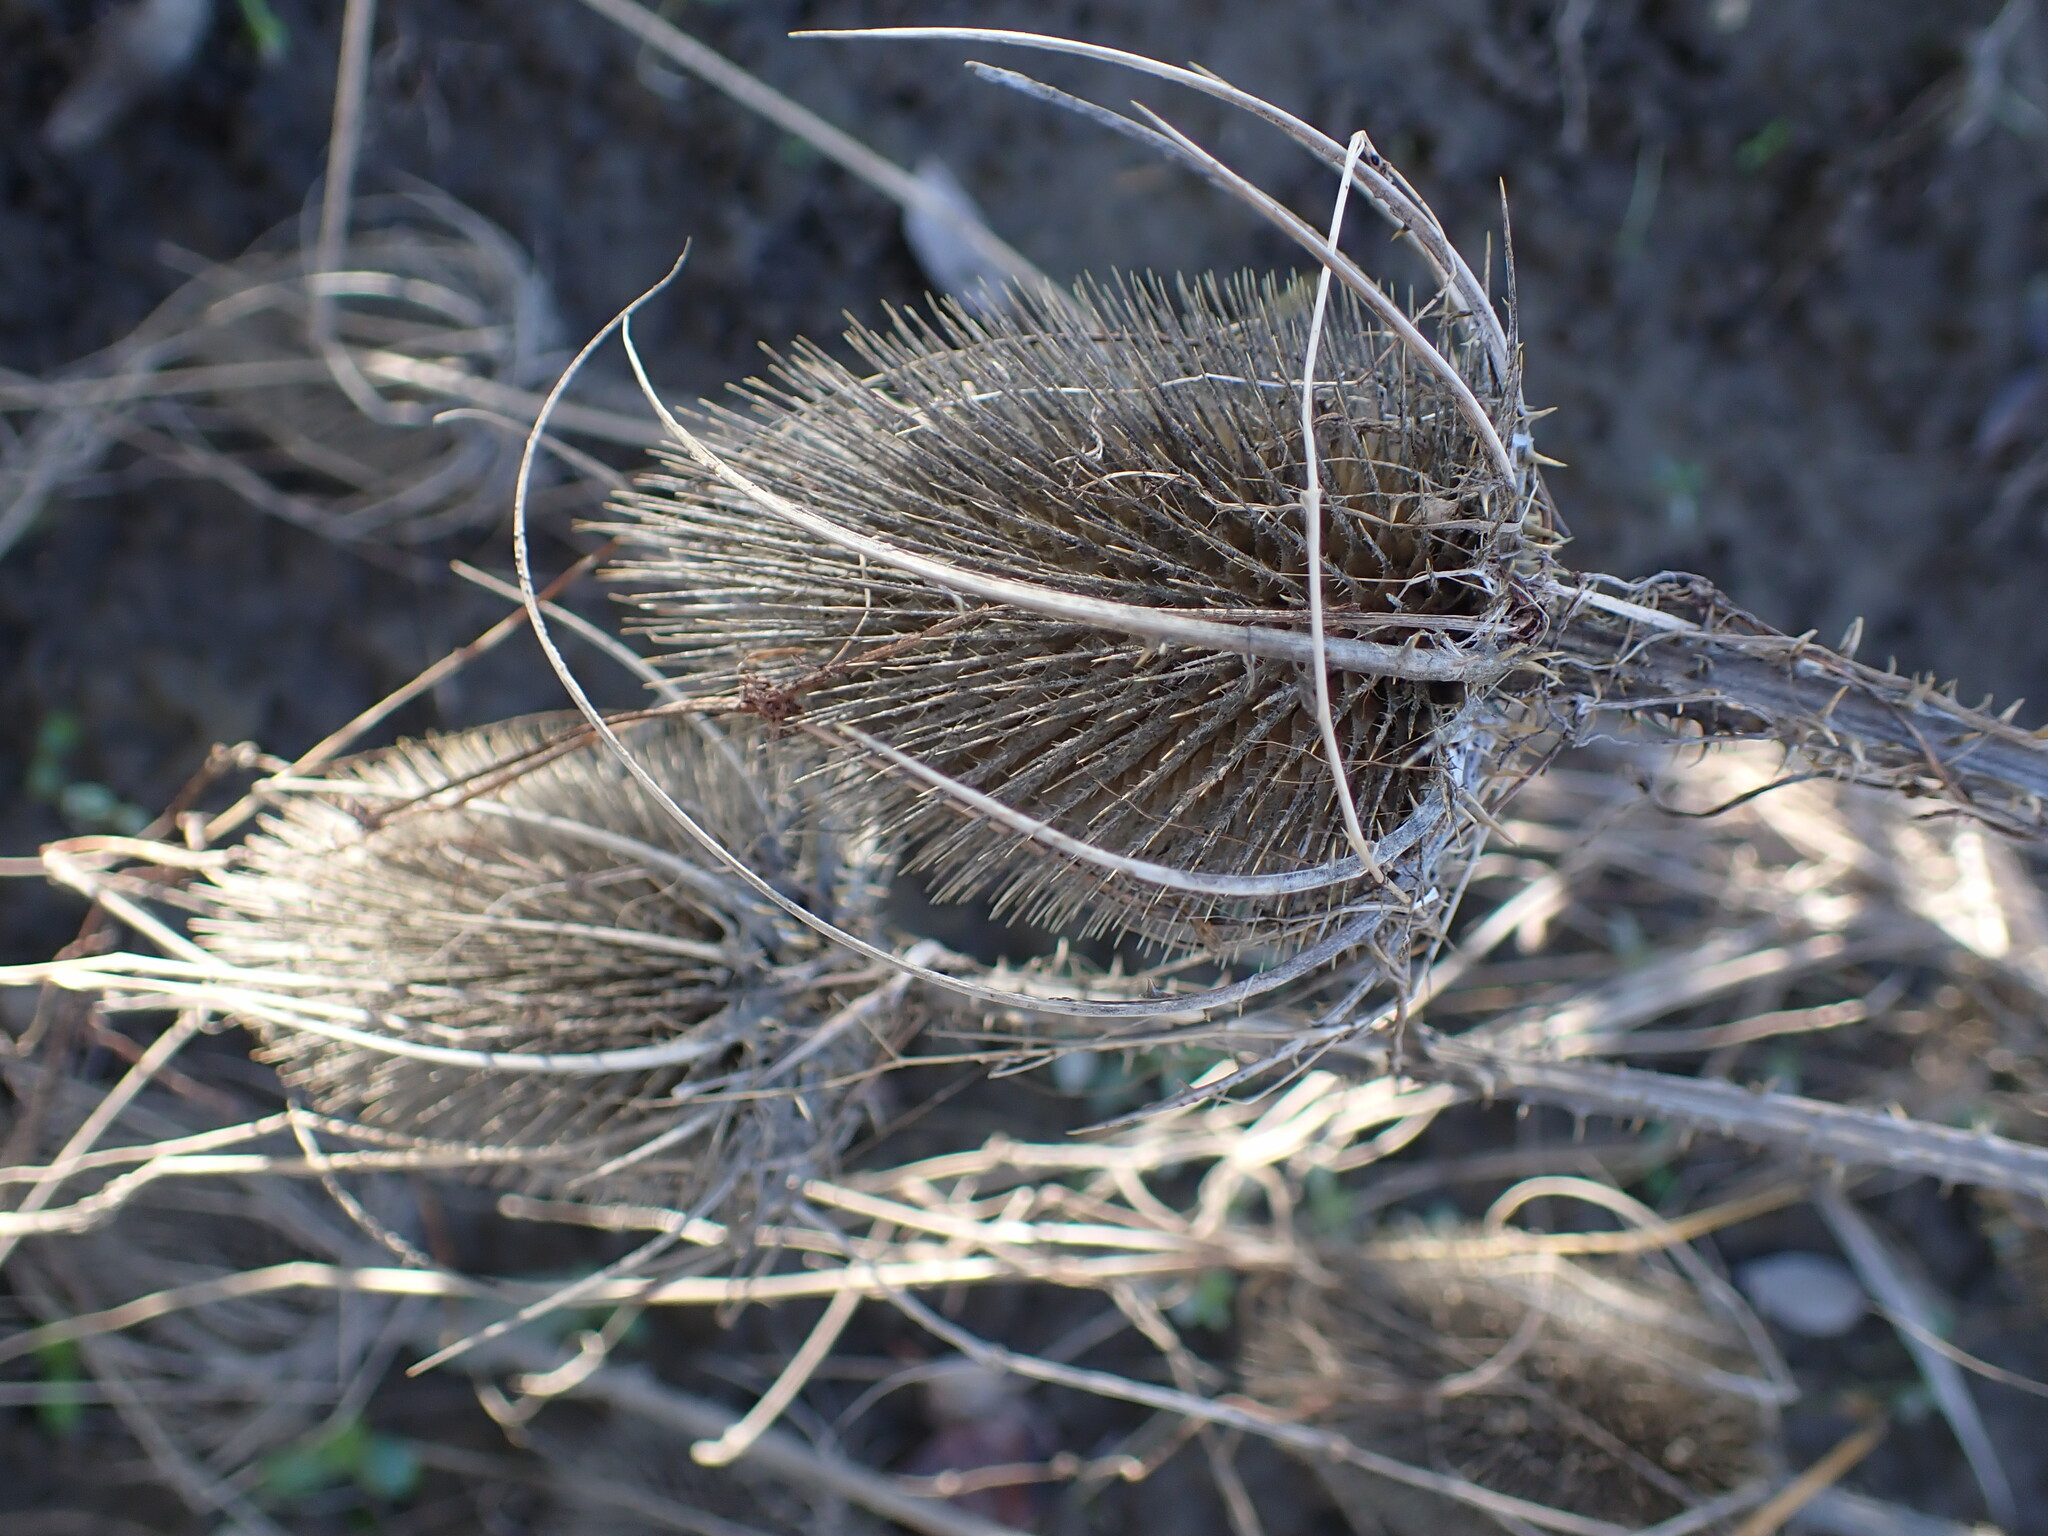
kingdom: Plantae
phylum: Tracheophyta
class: Magnoliopsida
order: Dipsacales
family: Caprifoliaceae
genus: Dipsacus
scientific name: Dipsacus fullonum
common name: Teasel
